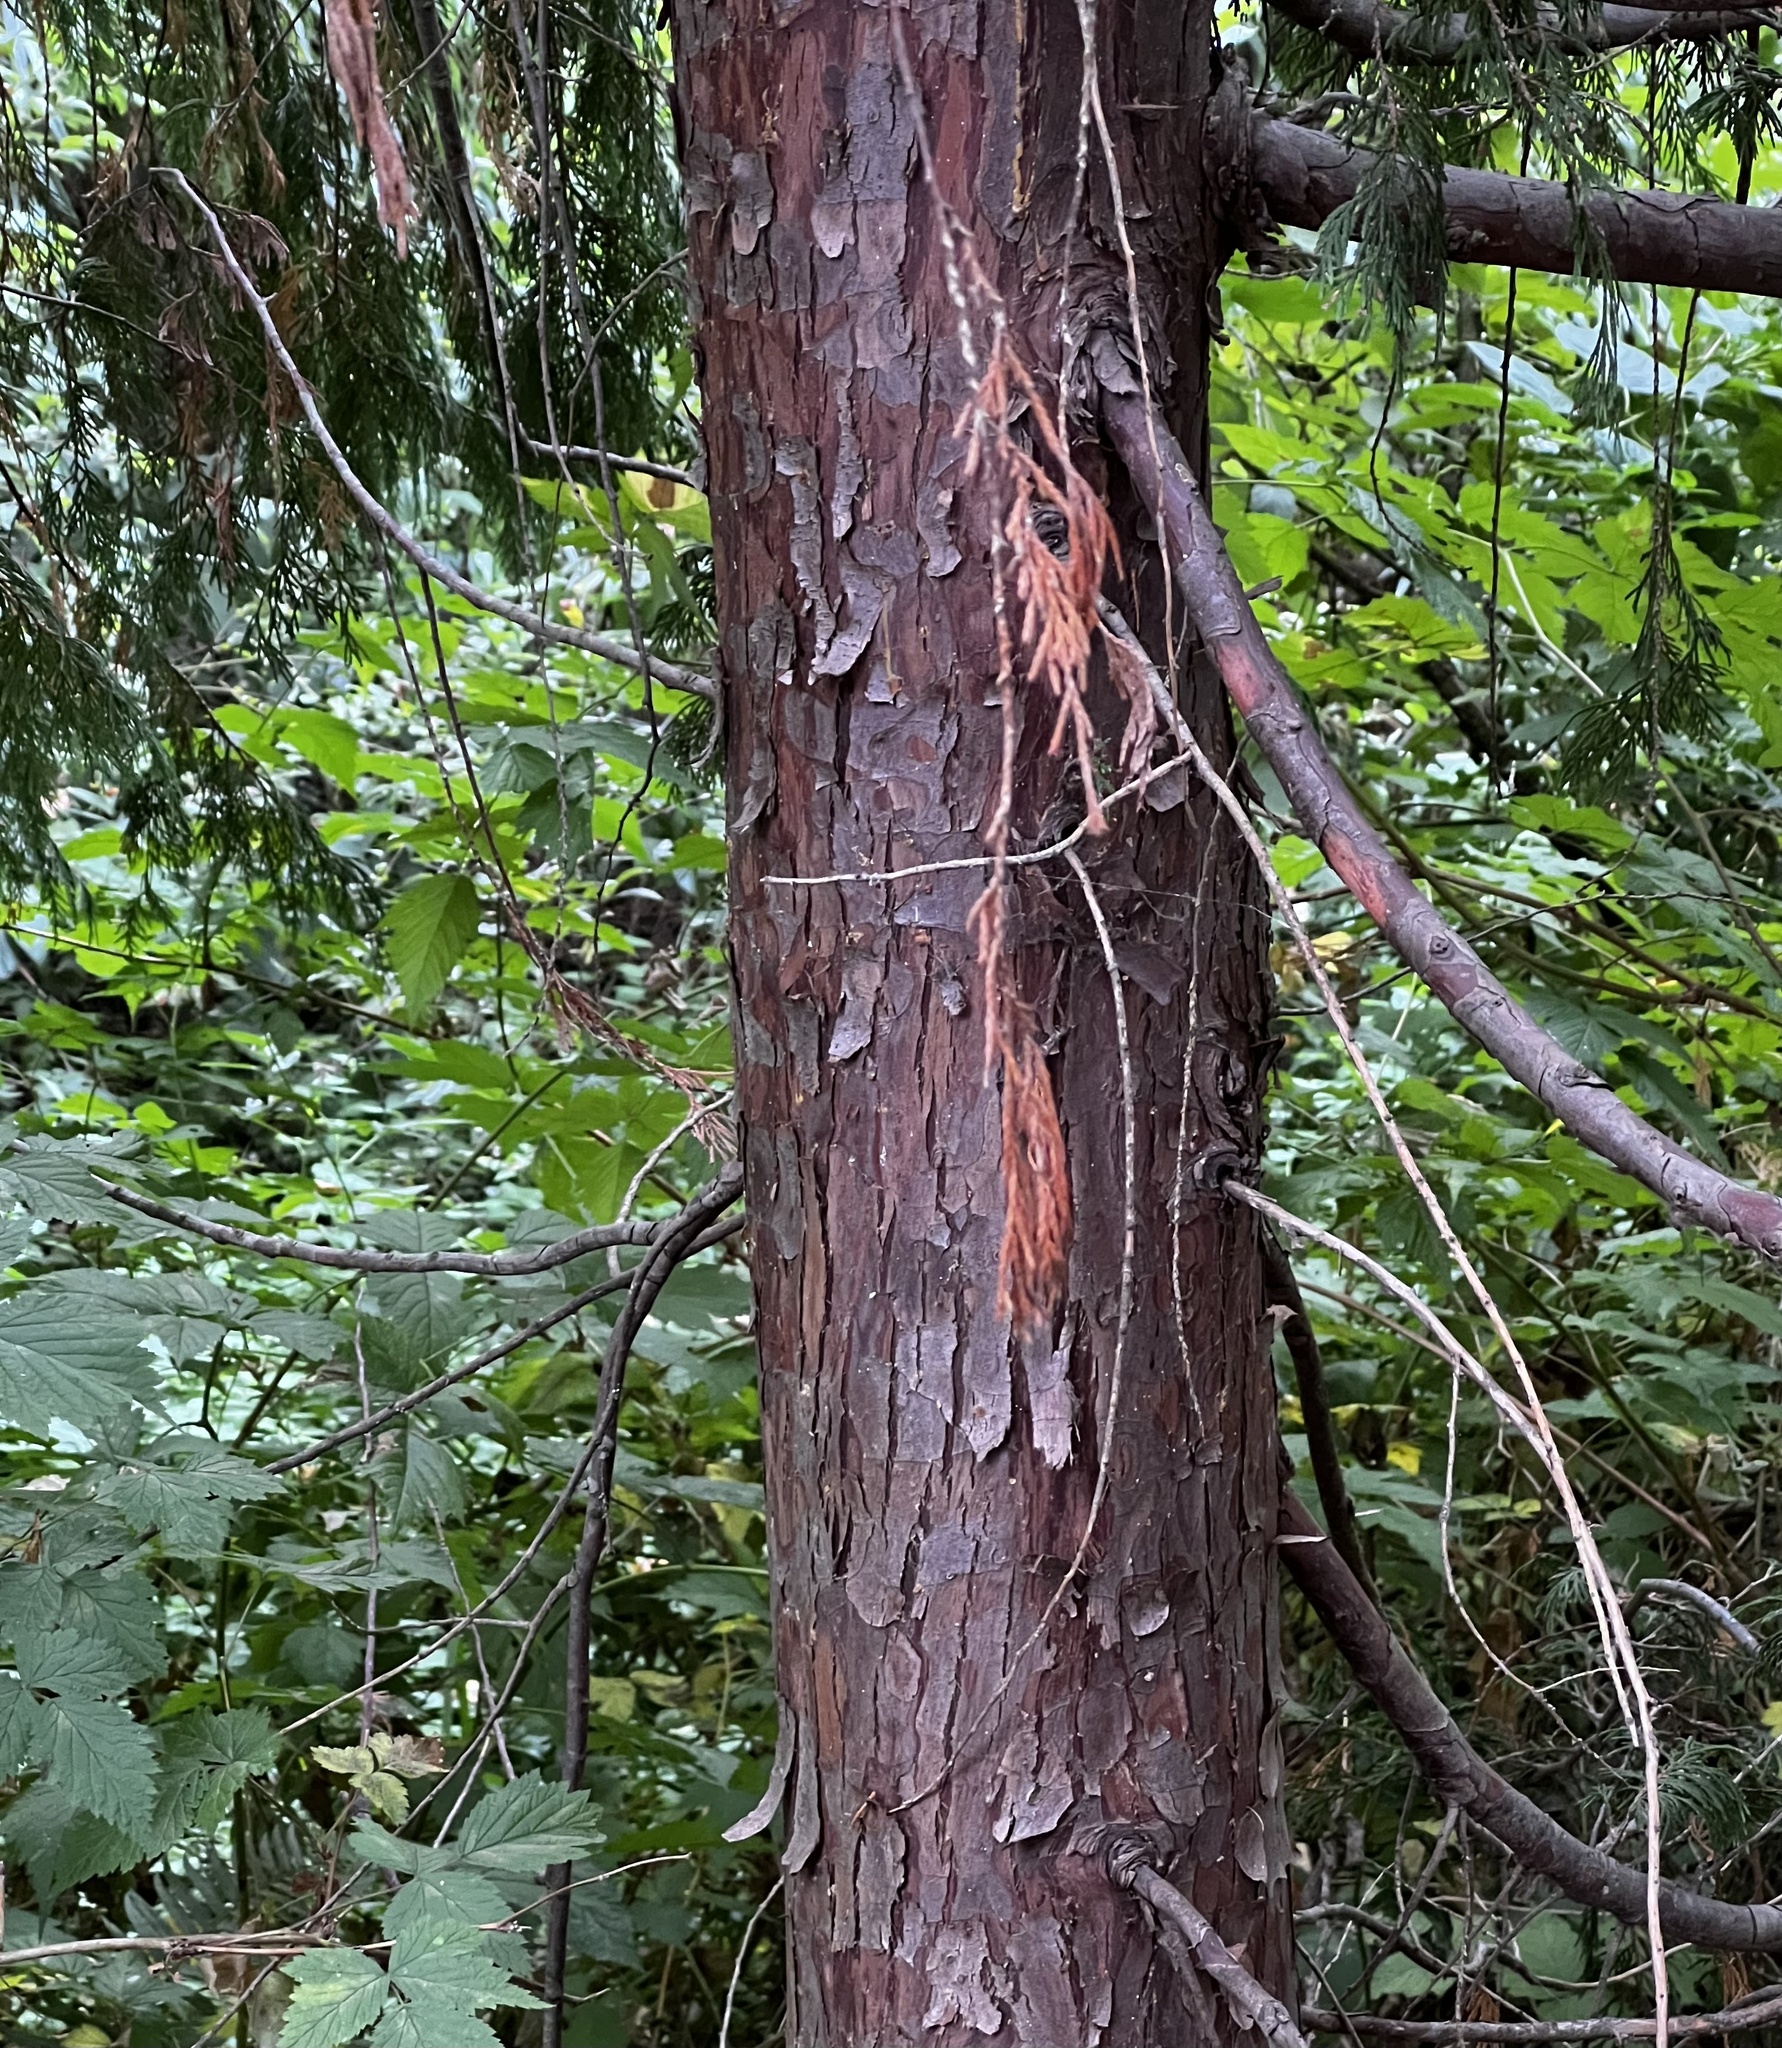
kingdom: Plantae
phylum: Tracheophyta
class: Pinopsida
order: Pinales
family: Cupressaceae
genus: Xanthocyparis
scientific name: Xanthocyparis nootkatensis
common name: Nootka cypress
